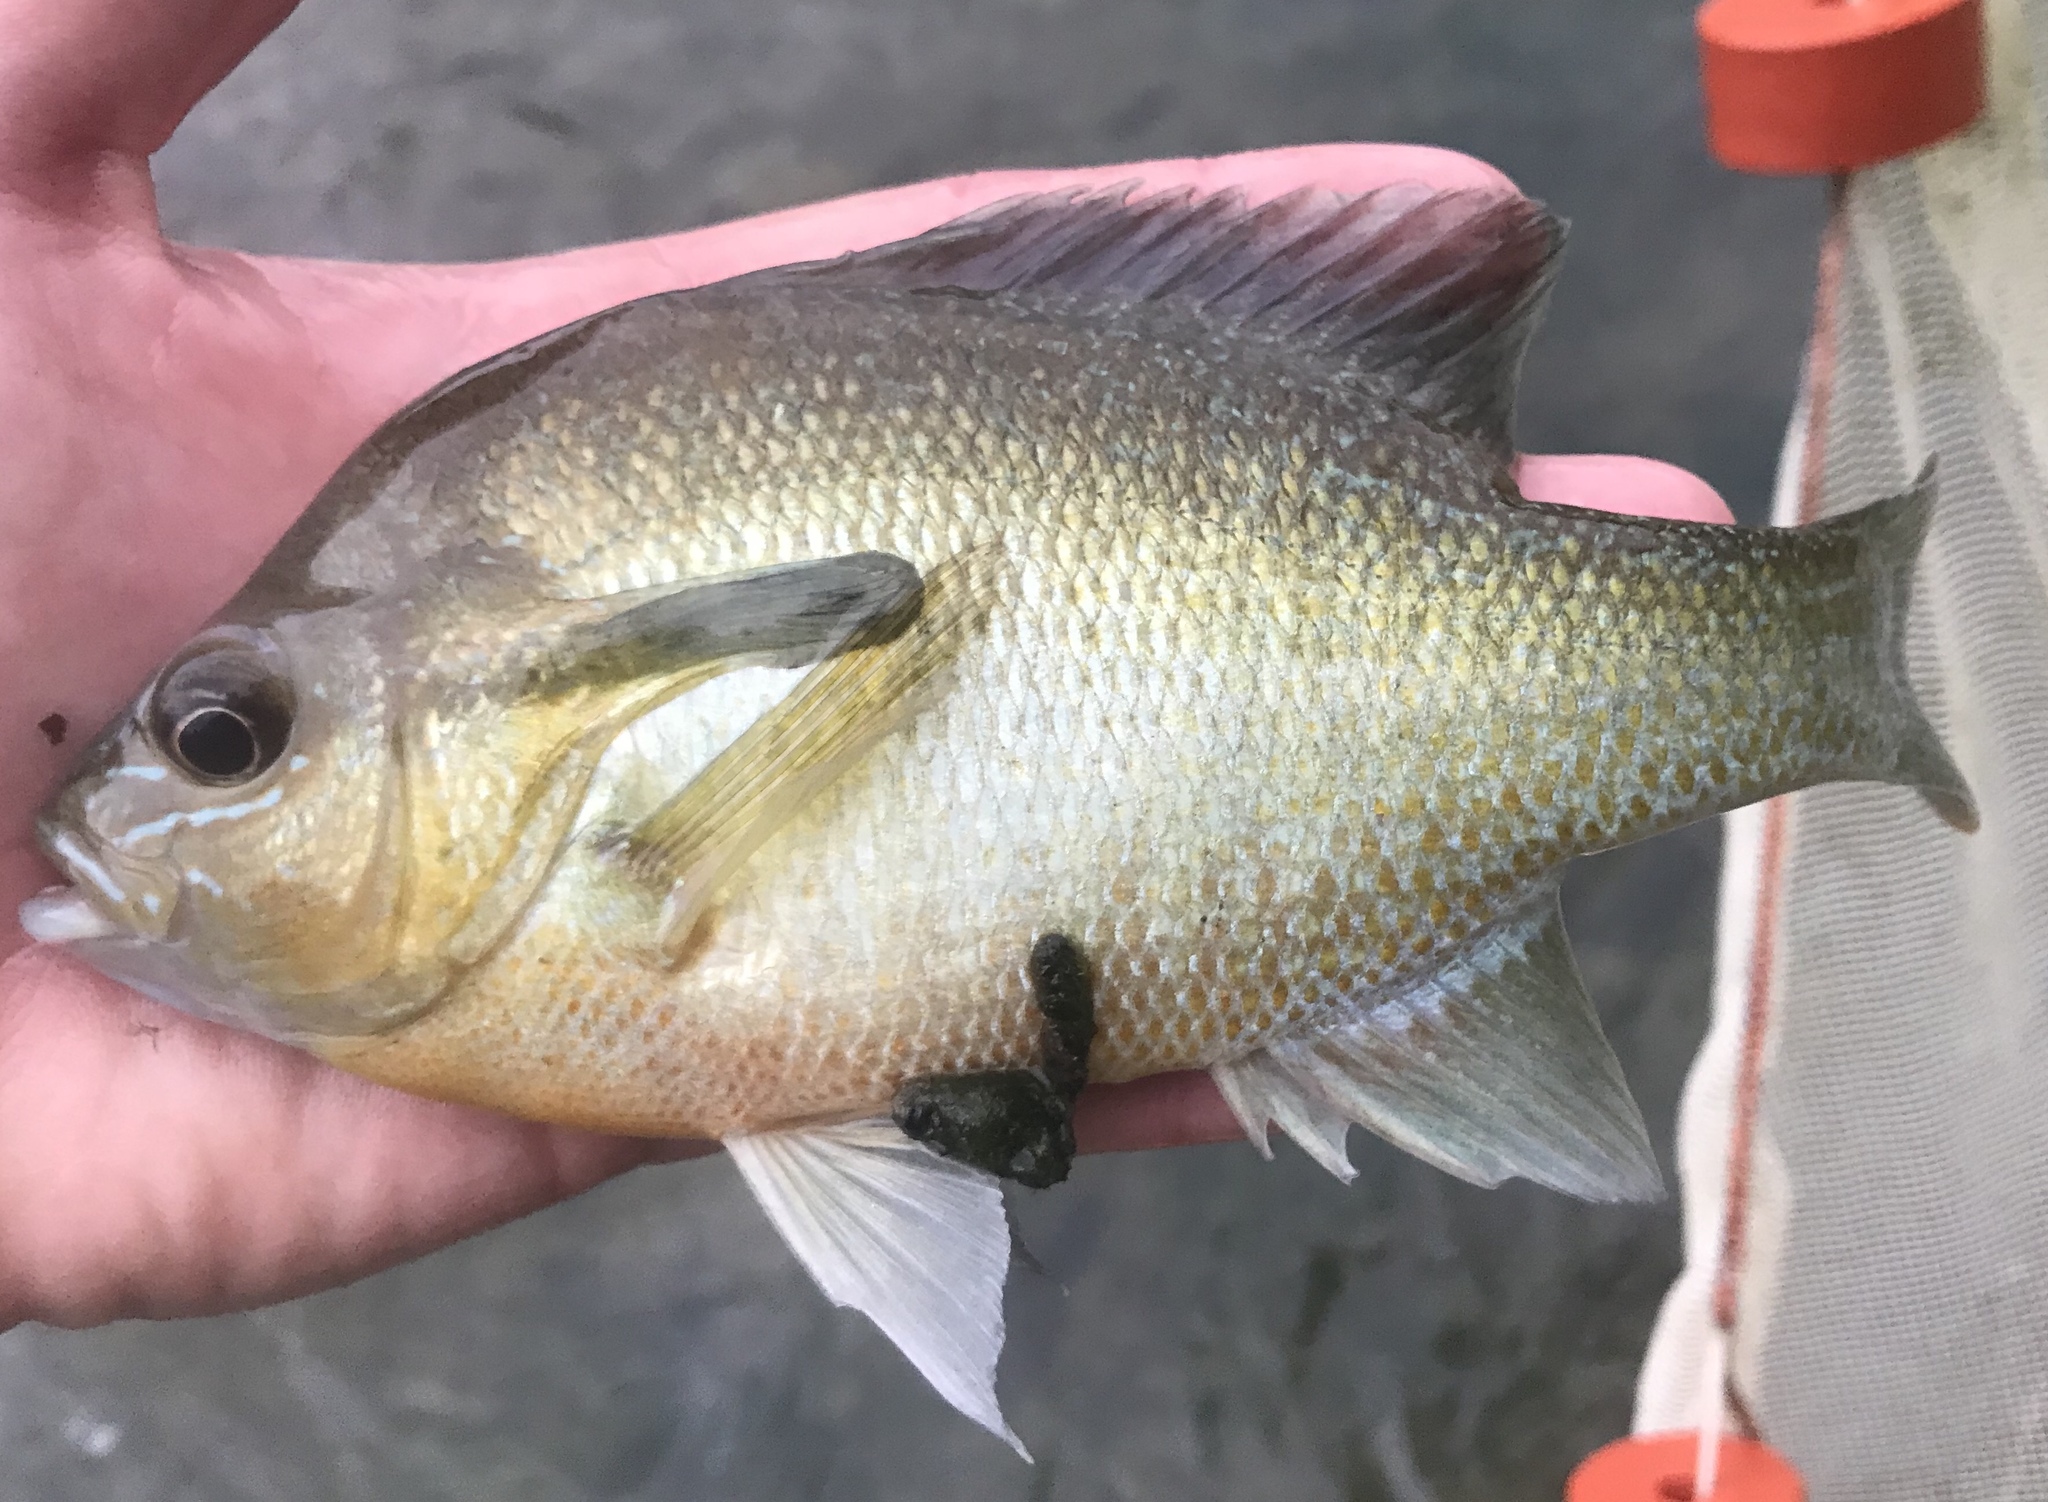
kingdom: Animalia
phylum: Chordata
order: Perciformes
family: Centrarchidae
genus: Lepomis
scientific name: Lepomis auritus
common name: Redbreast sunfish
